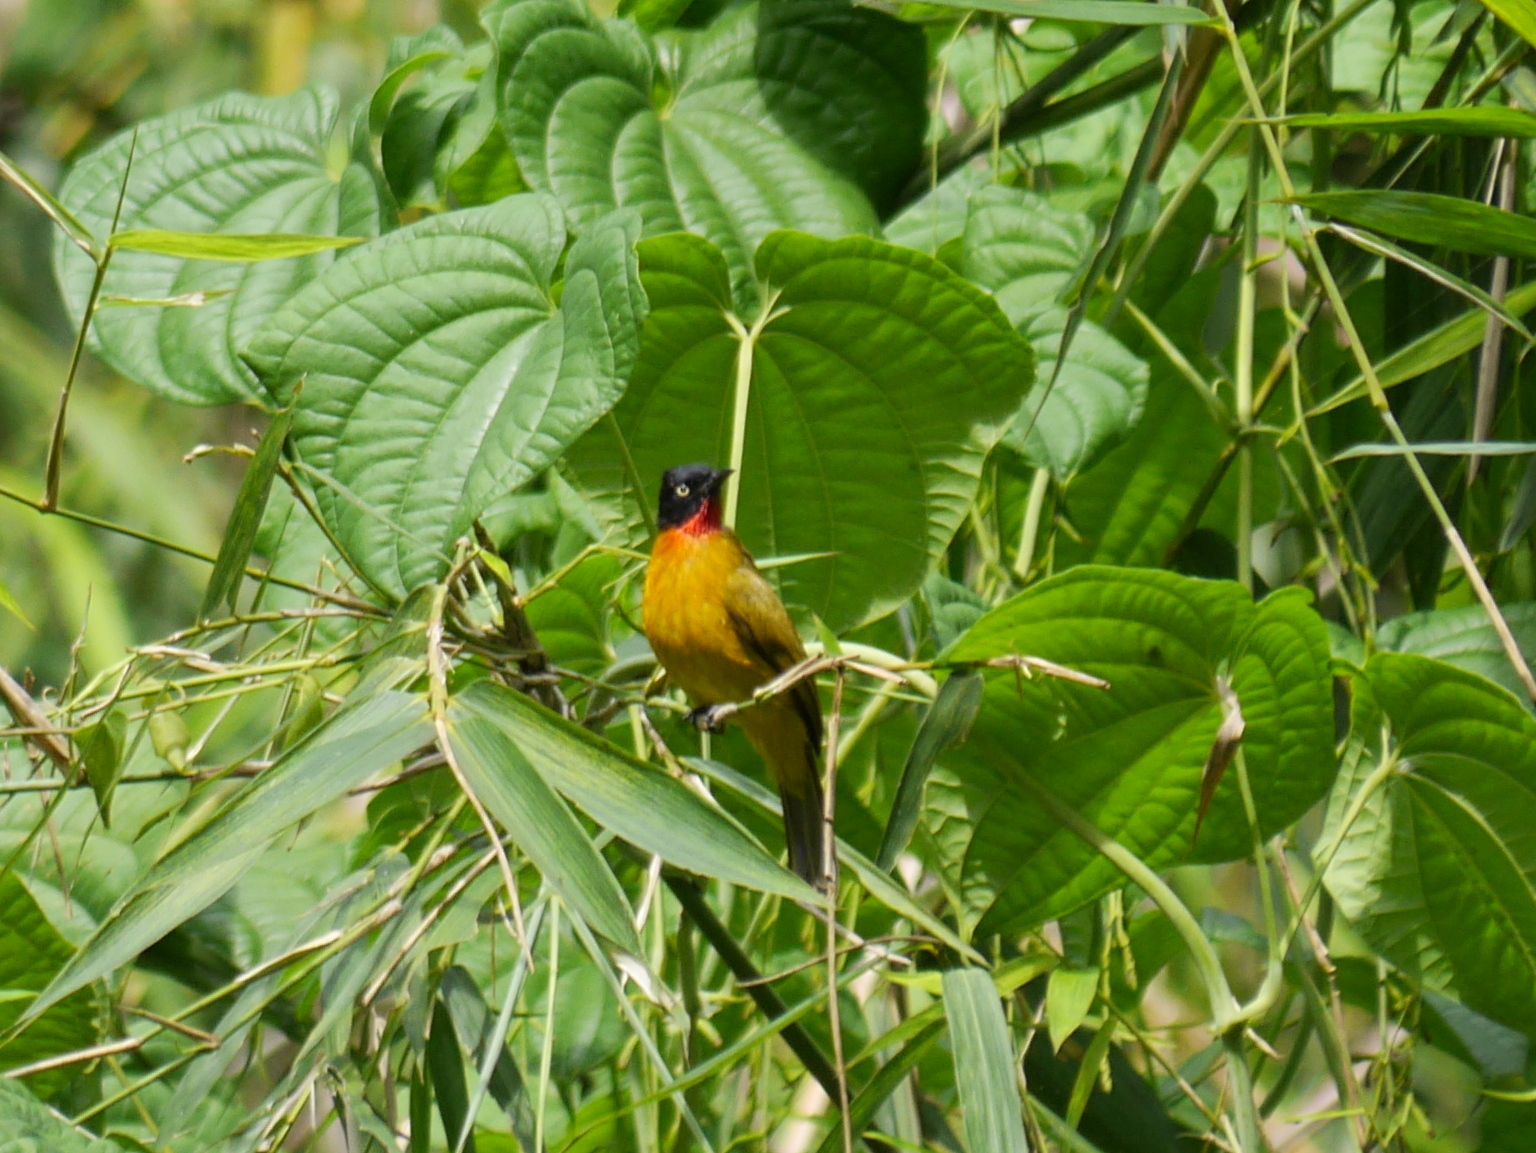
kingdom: Animalia
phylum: Chordata
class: Aves
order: Passeriformes
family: Pycnonotidae
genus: Pycnonotus
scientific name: Pycnonotus dispar
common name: Ruby-throated bulbul
